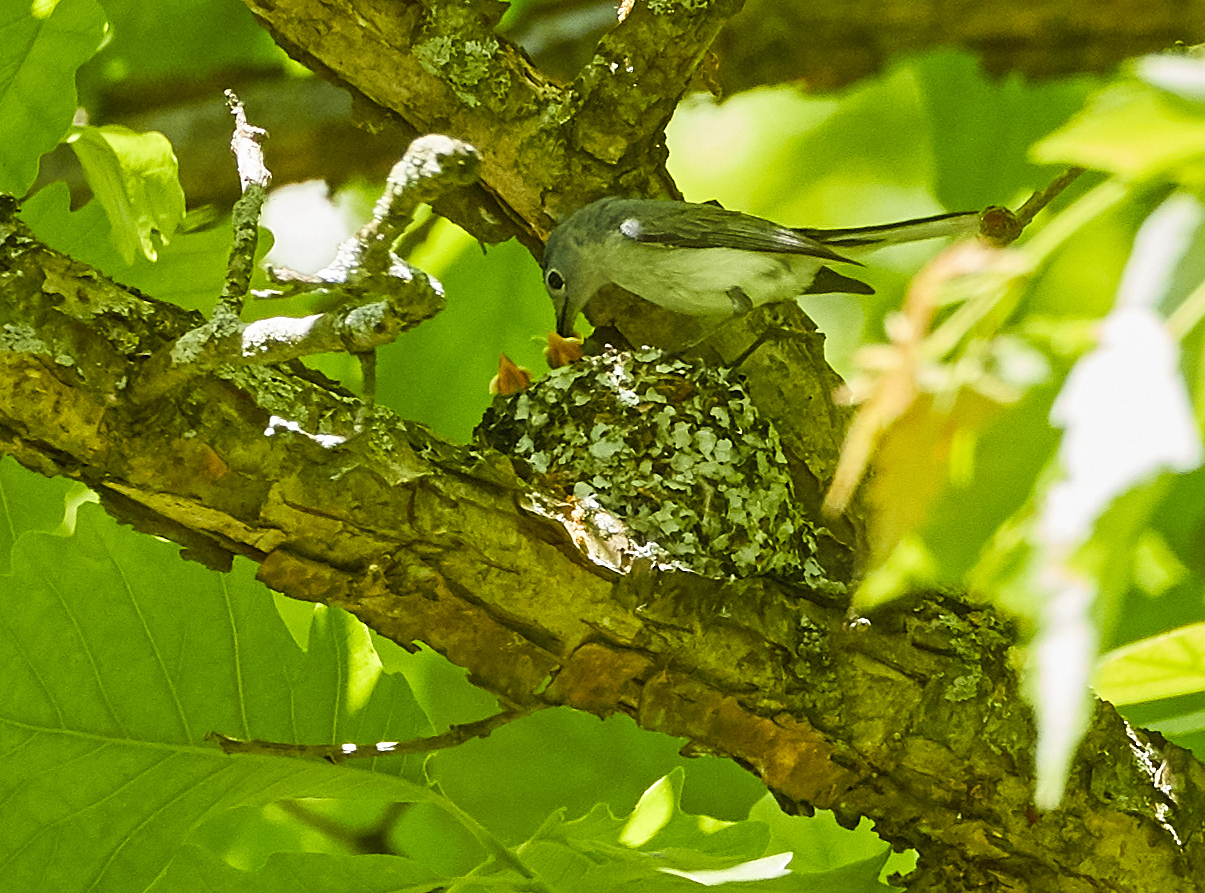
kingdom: Animalia
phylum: Chordata
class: Aves
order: Passeriformes
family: Polioptilidae
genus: Polioptila
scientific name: Polioptila caerulea
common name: Blue-gray gnatcatcher
